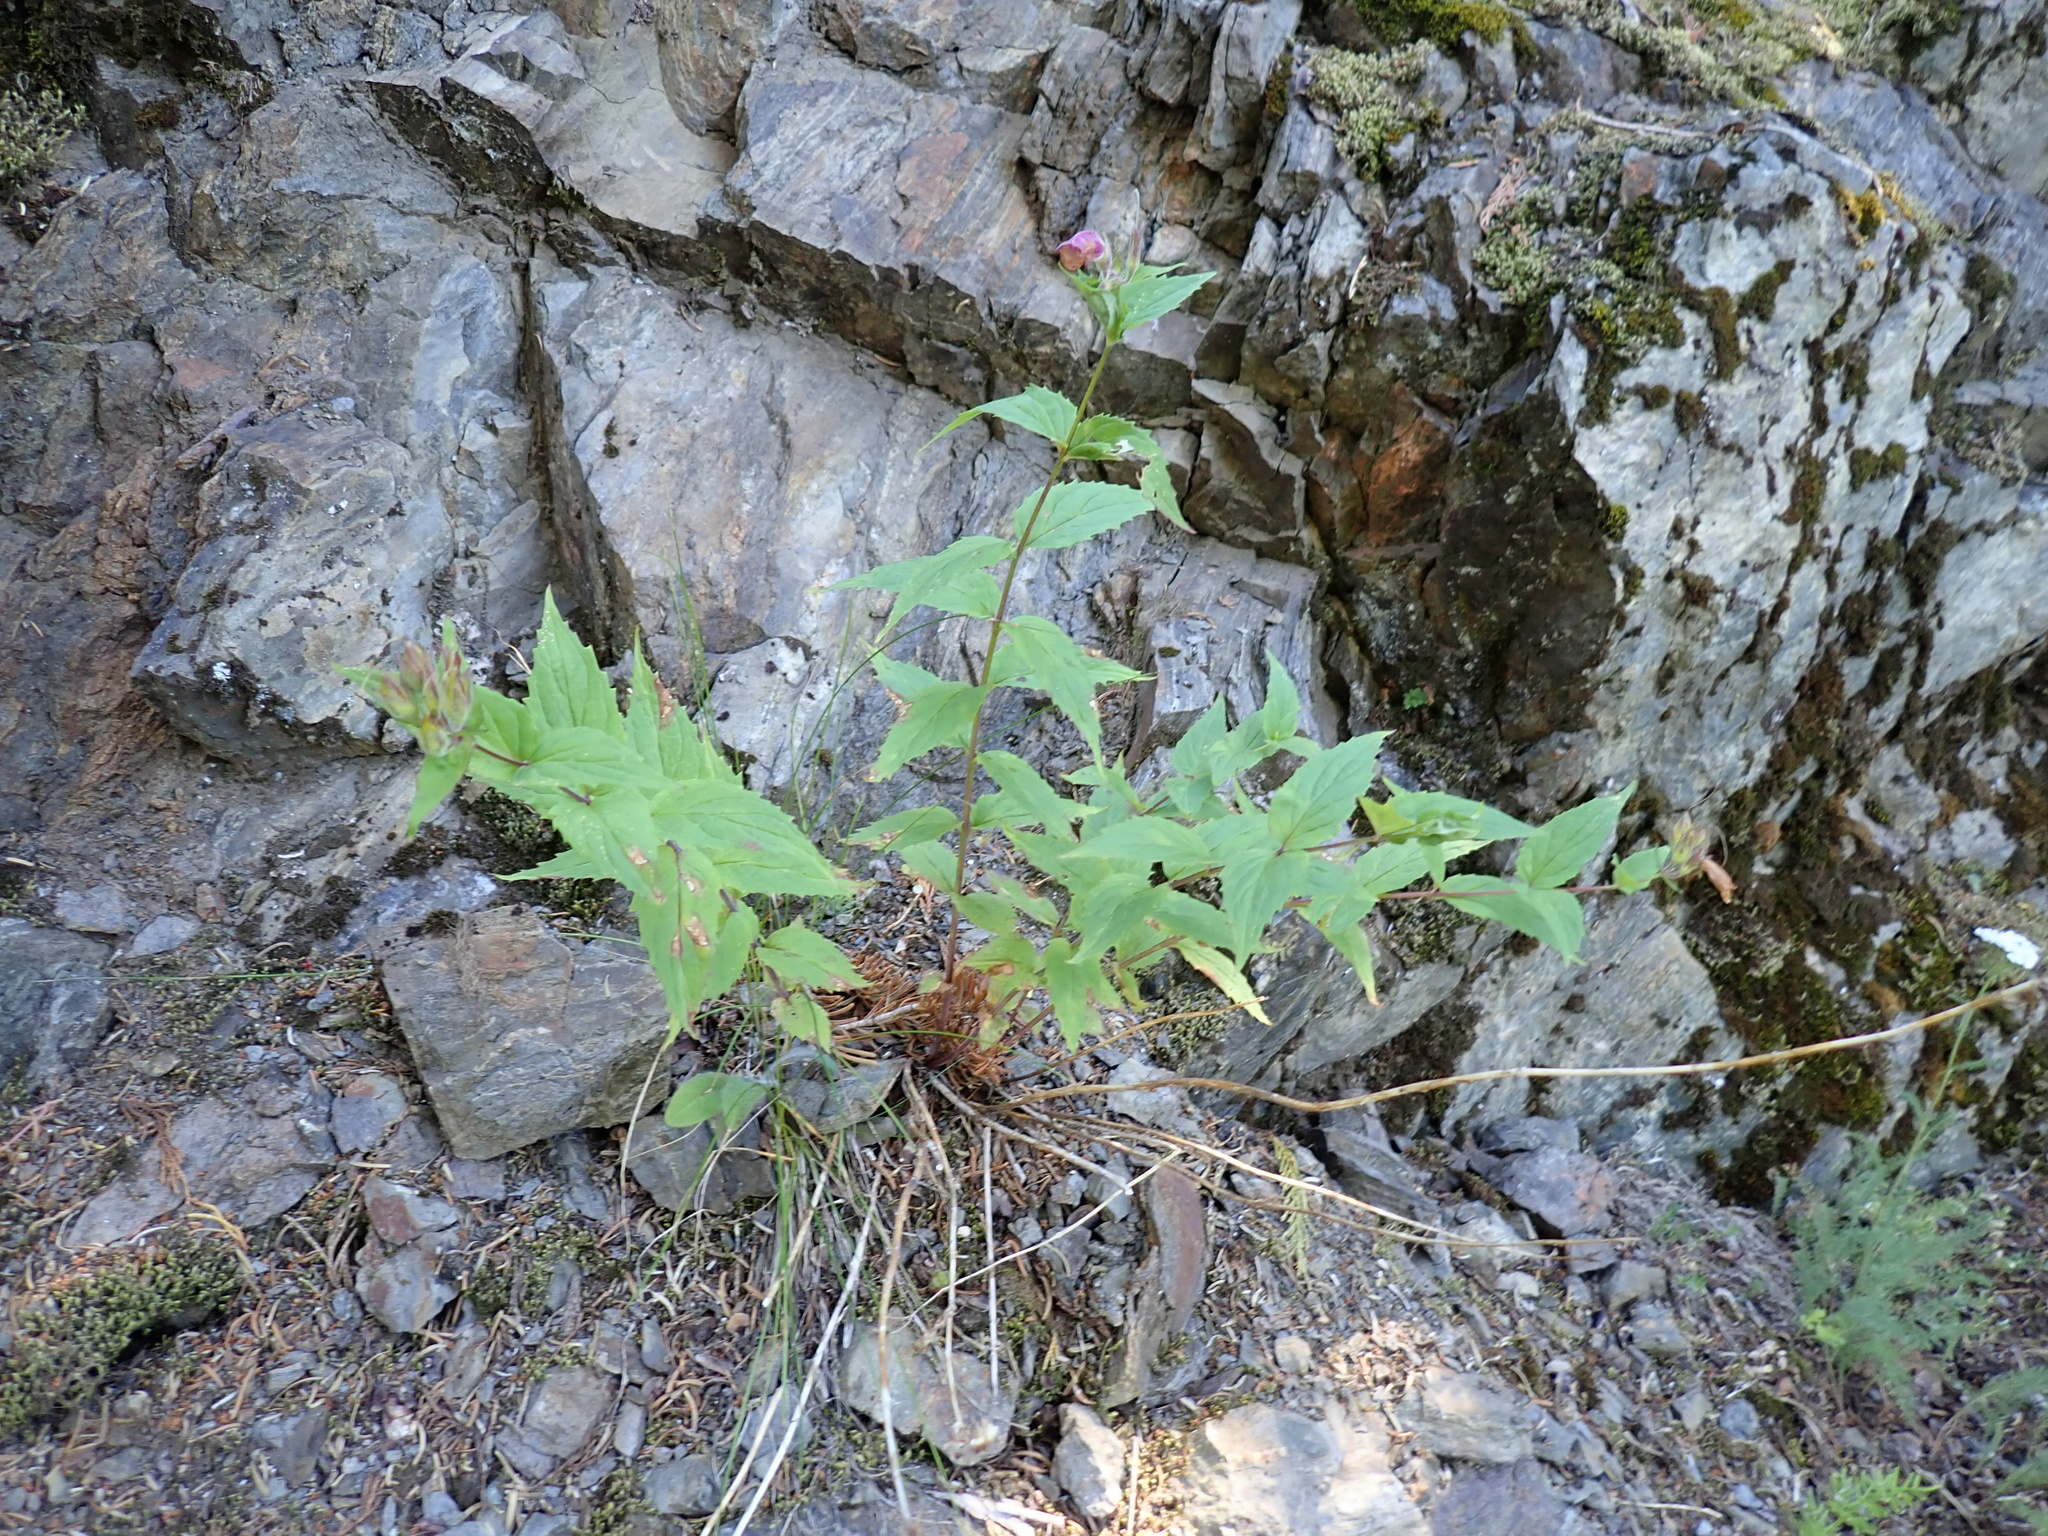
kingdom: Plantae
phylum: Tracheophyta
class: Magnoliopsida
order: Lamiales
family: Plantaginaceae
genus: Nothochelone
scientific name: Nothochelone nemorosa
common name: Woodland beardtongue
